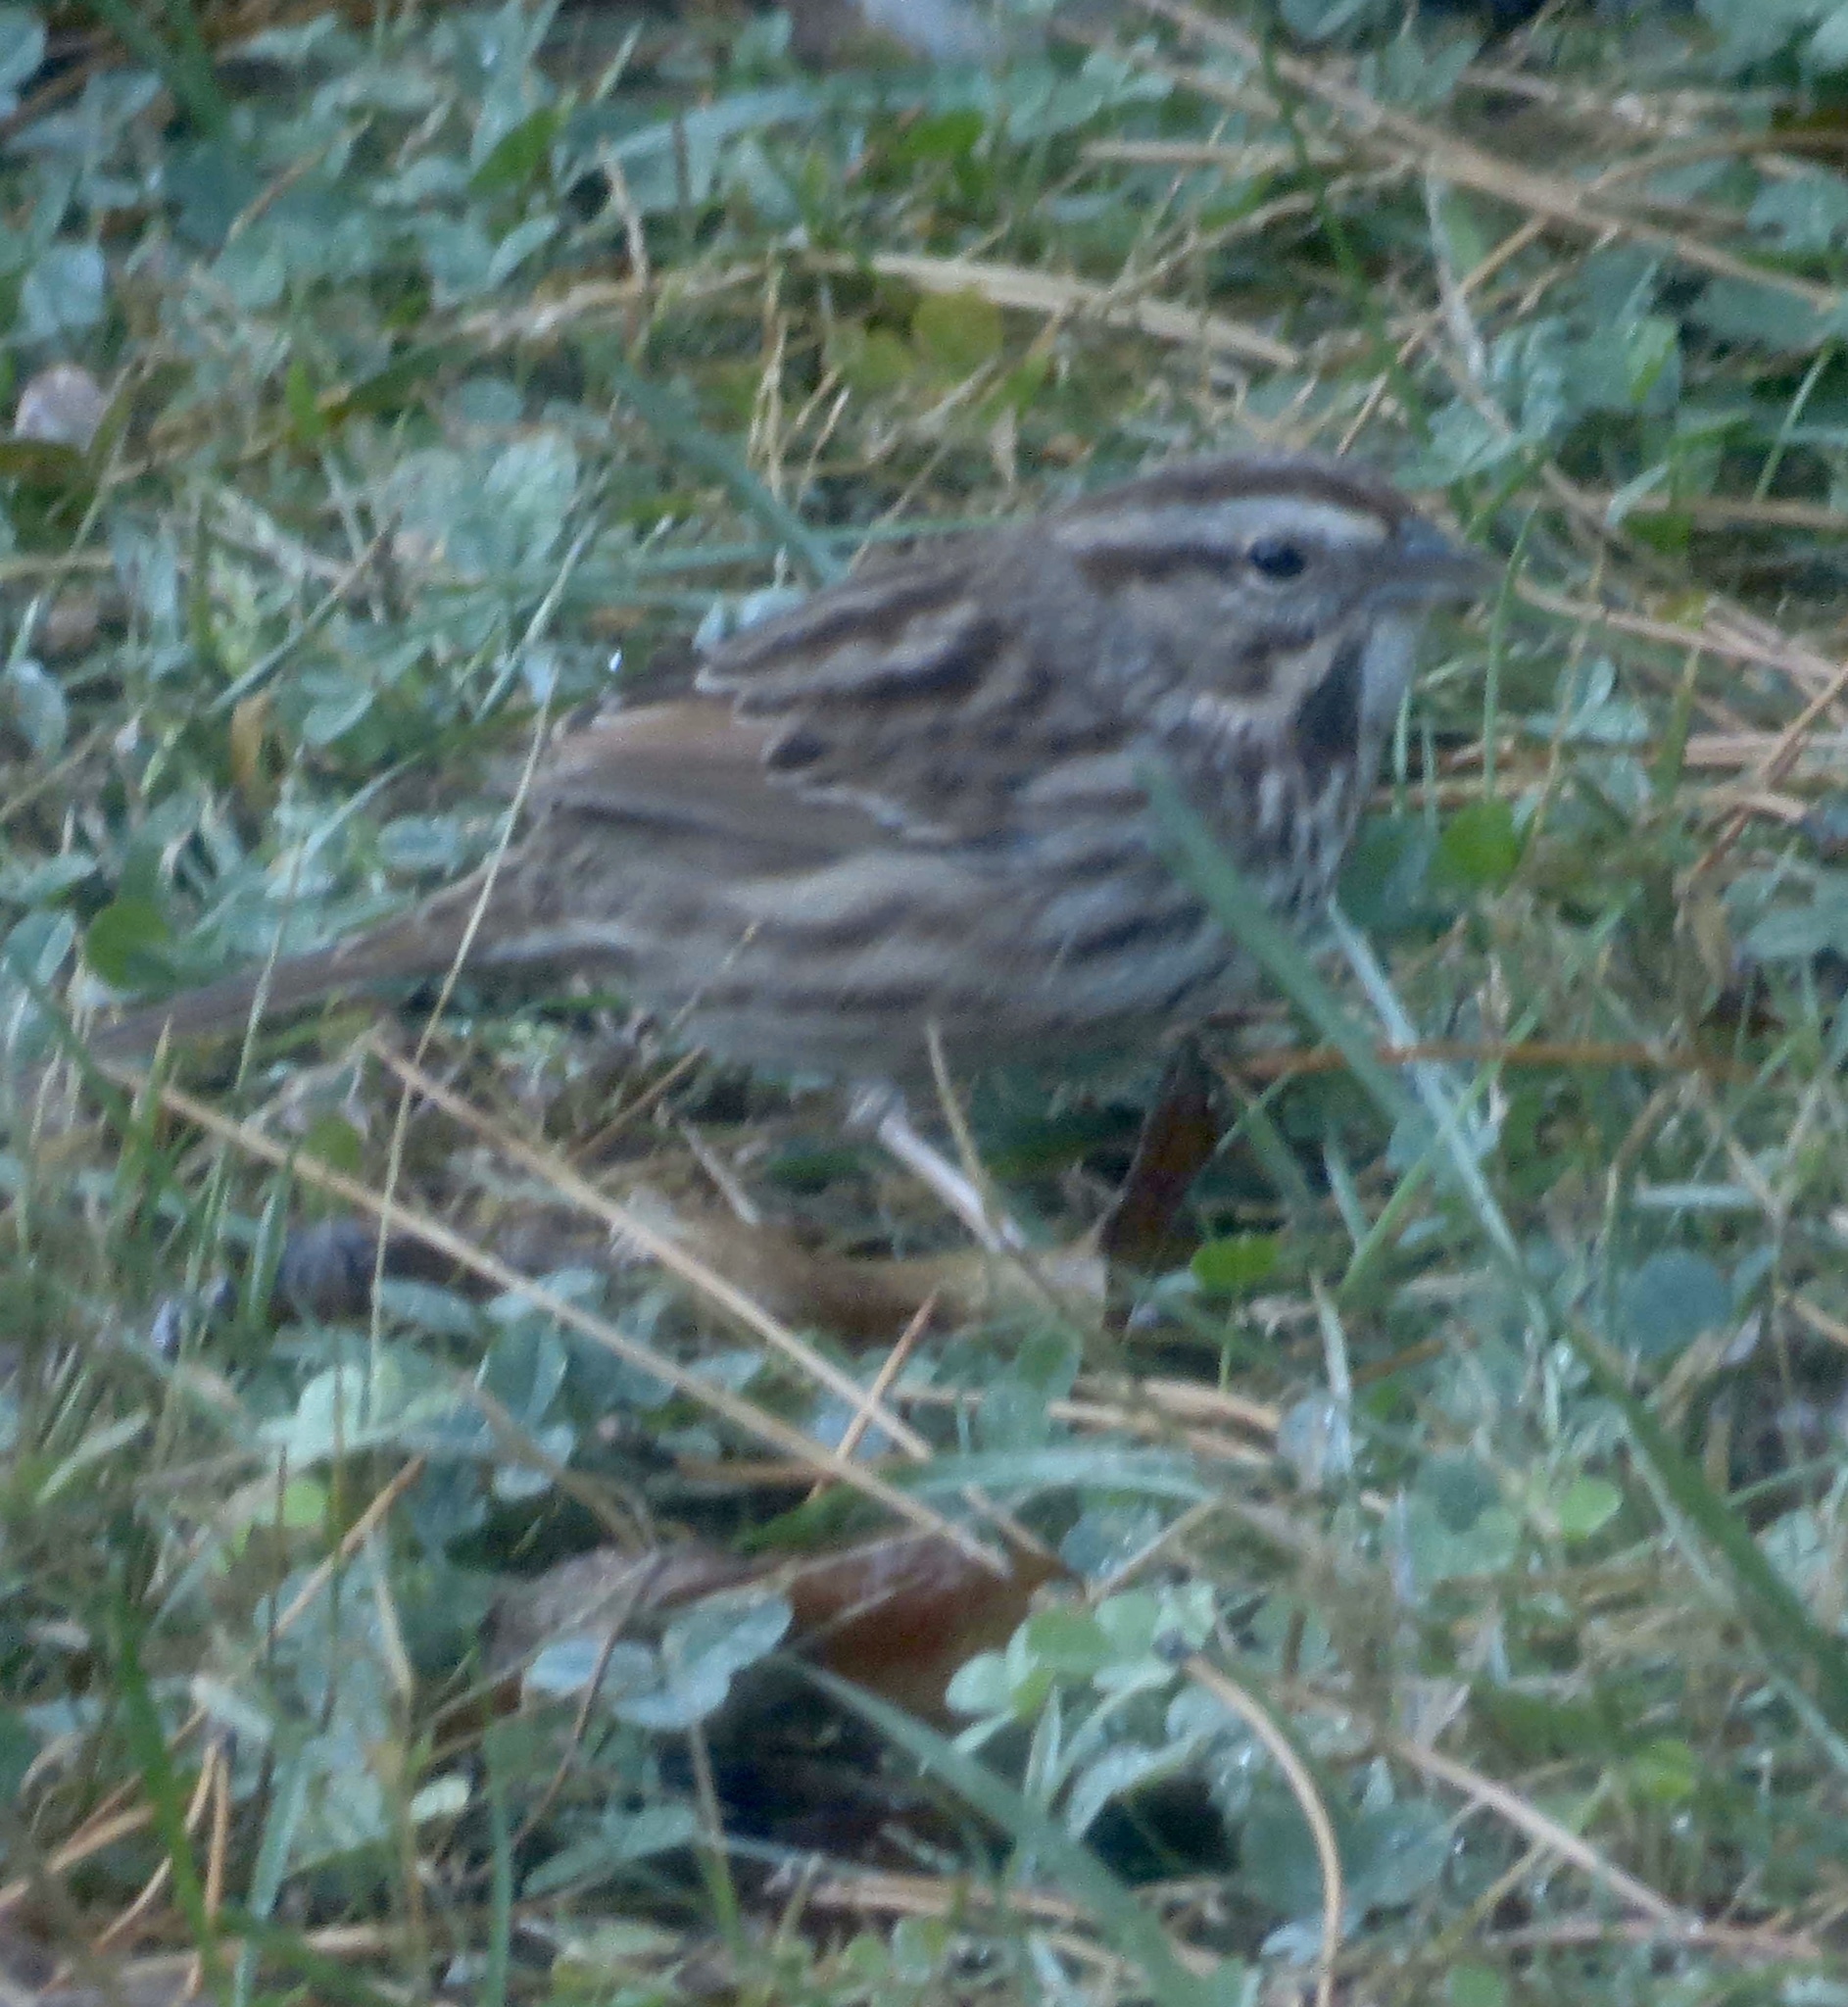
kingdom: Animalia
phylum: Chordata
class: Aves
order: Passeriformes
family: Passerellidae
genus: Melospiza
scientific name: Melospiza melodia
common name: Song sparrow
